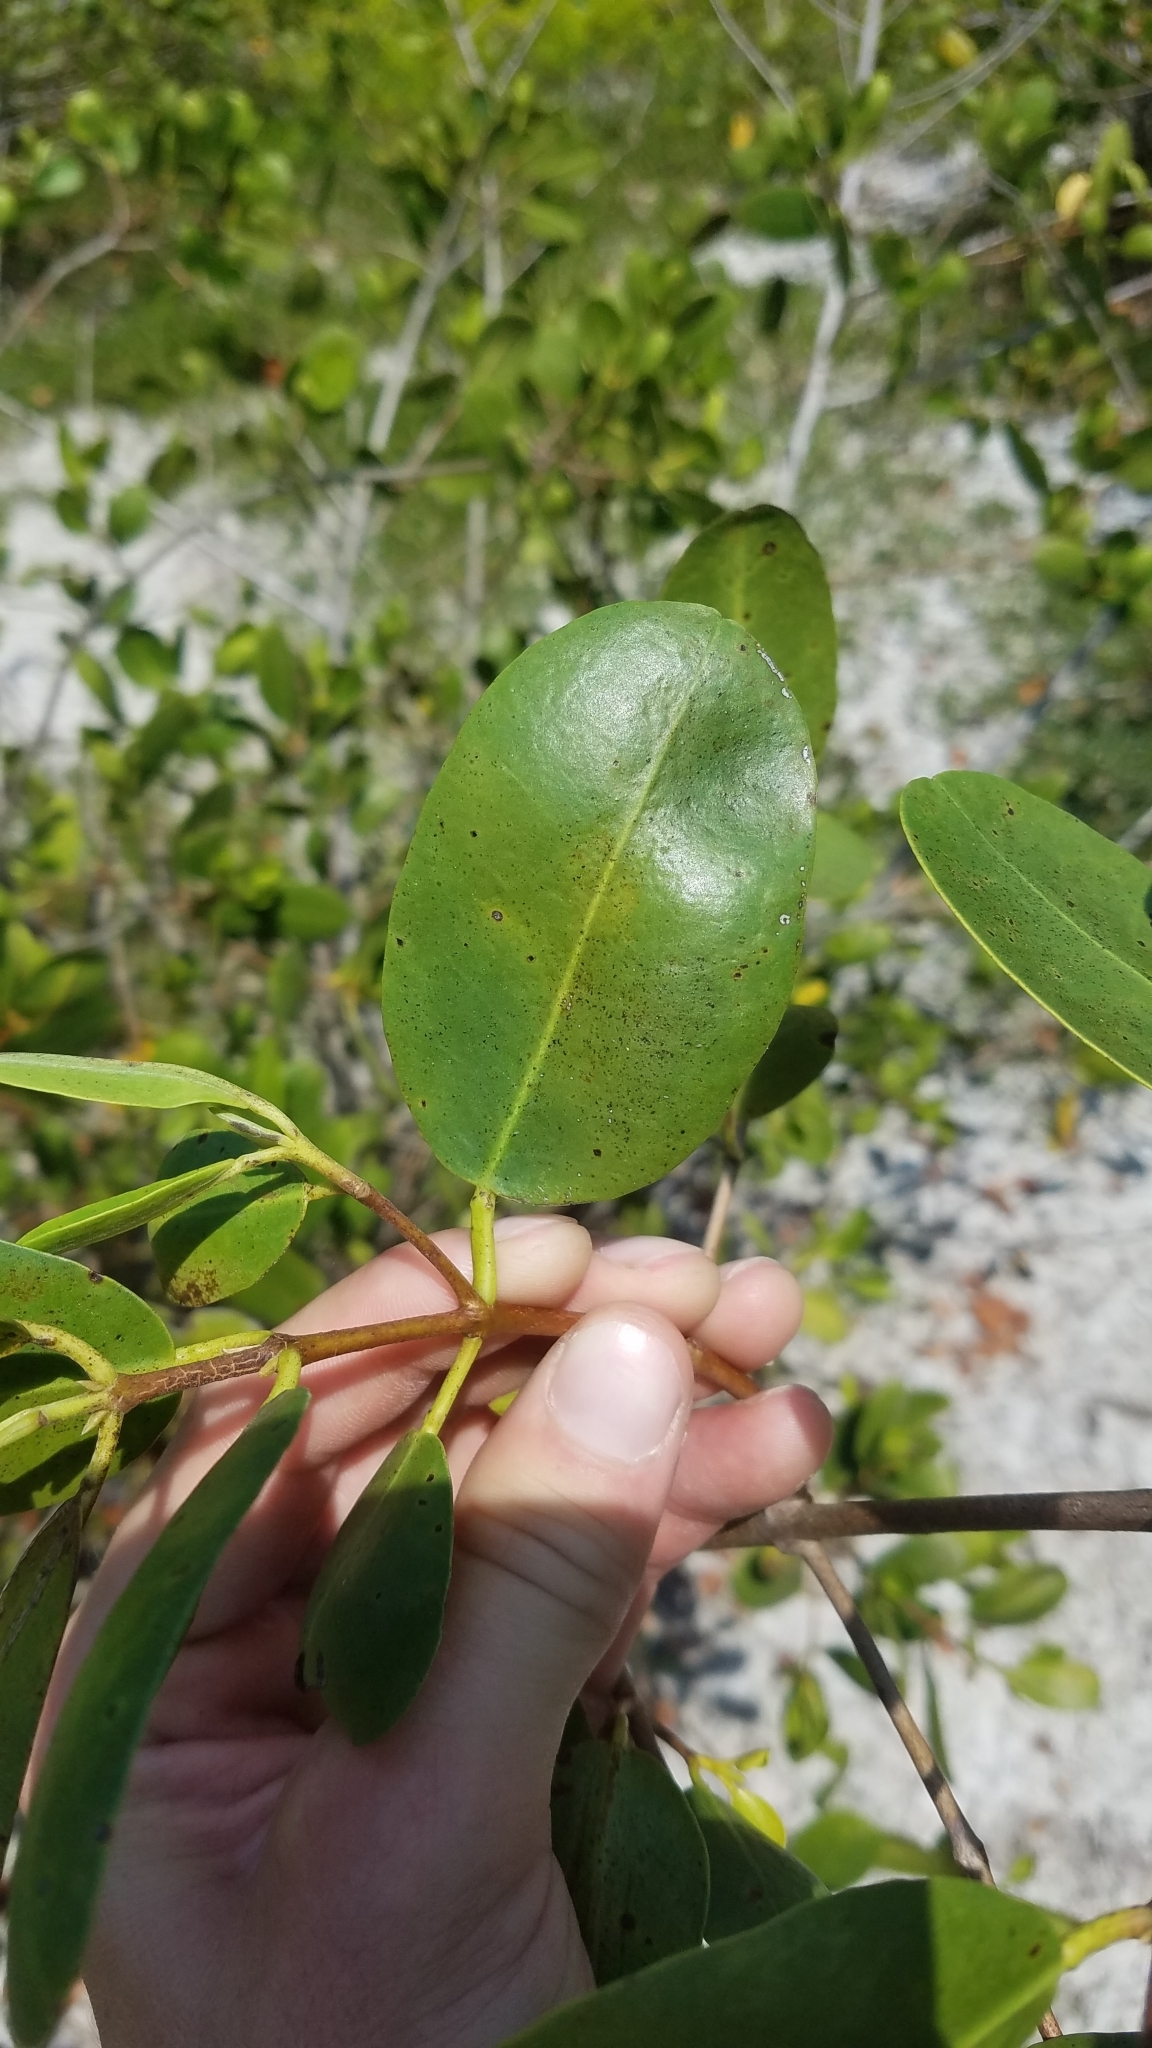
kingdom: Plantae
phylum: Tracheophyta
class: Magnoliopsida
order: Myrtales
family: Combretaceae
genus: Laguncularia
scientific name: Laguncularia racemosa
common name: White mangrove
